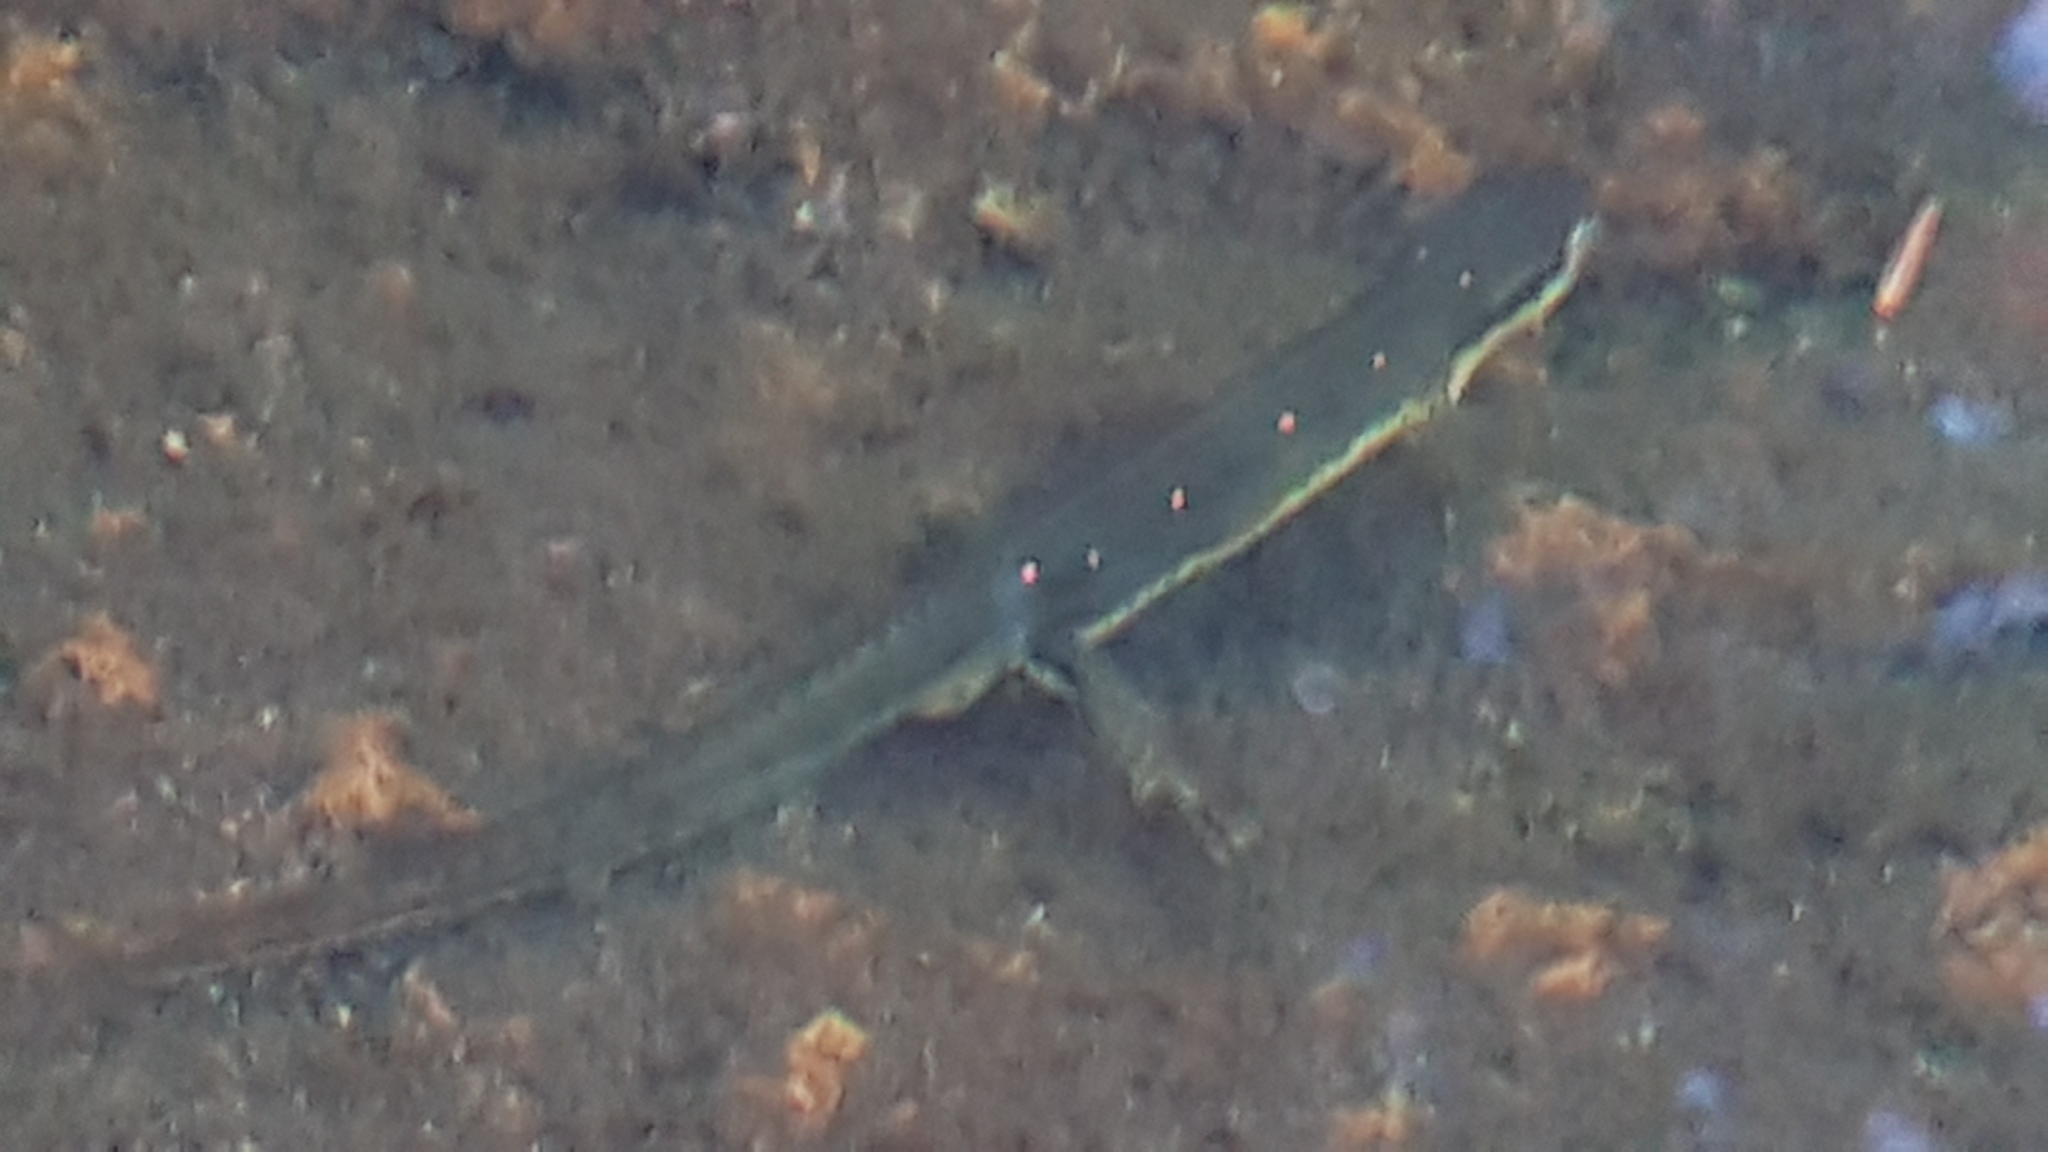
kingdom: Animalia
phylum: Chordata
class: Amphibia
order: Caudata
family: Salamandridae
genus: Notophthalmus
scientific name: Notophthalmus viridescens
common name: Eastern newt
